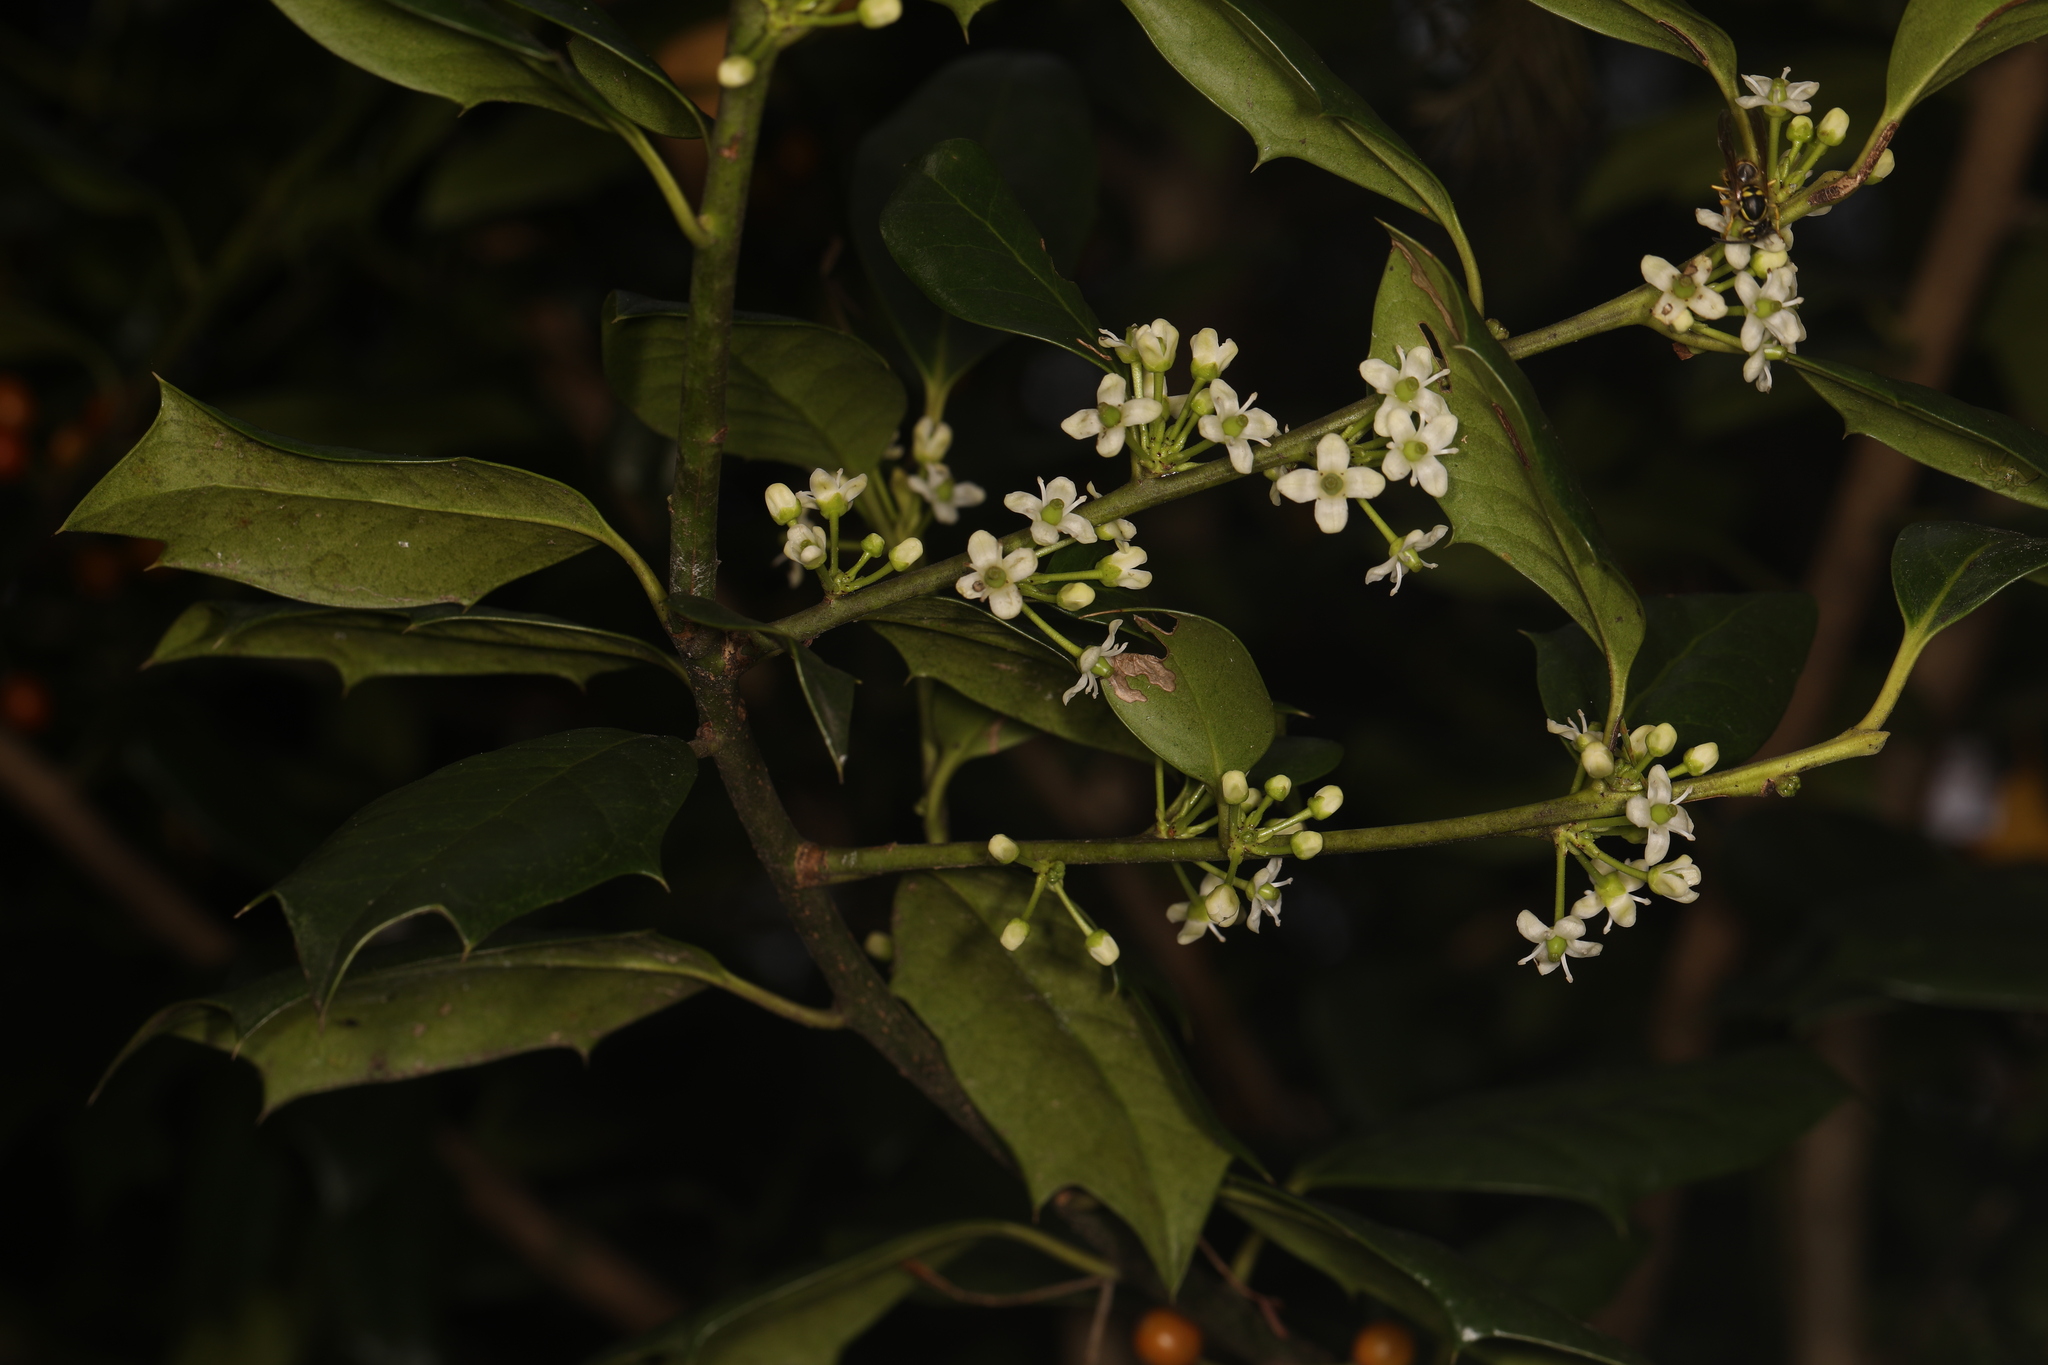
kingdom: Plantae
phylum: Tracheophyta
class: Magnoliopsida
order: Aquifoliales
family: Aquifoliaceae
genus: Ilex
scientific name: Ilex opaca
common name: American holly
